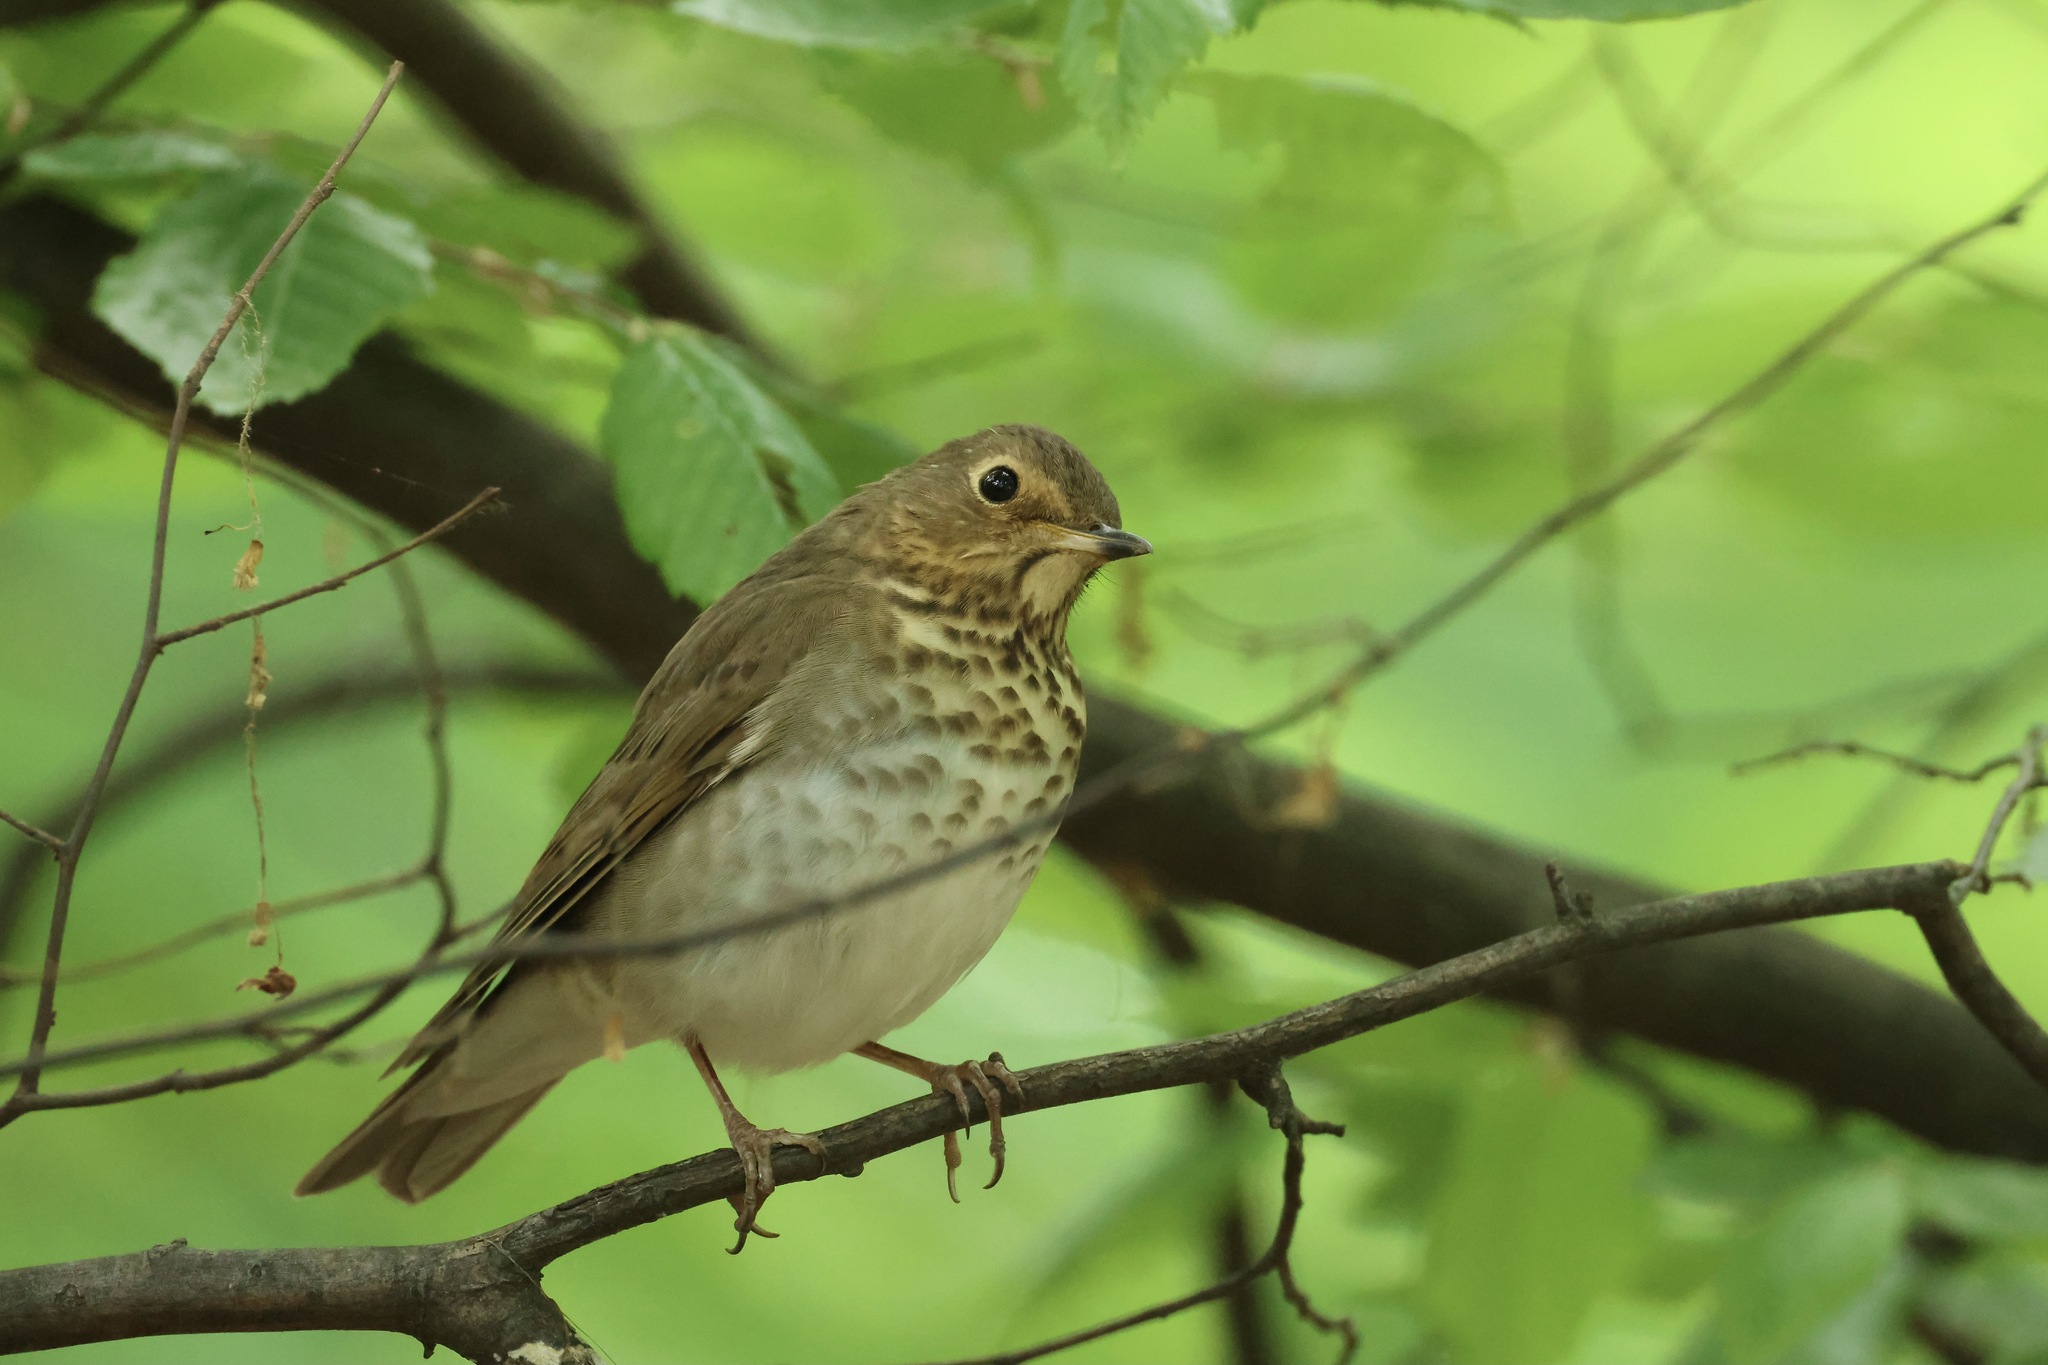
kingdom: Animalia
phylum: Chordata
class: Aves
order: Passeriformes
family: Turdidae
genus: Catharus
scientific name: Catharus ustulatus
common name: Swainson's thrush
